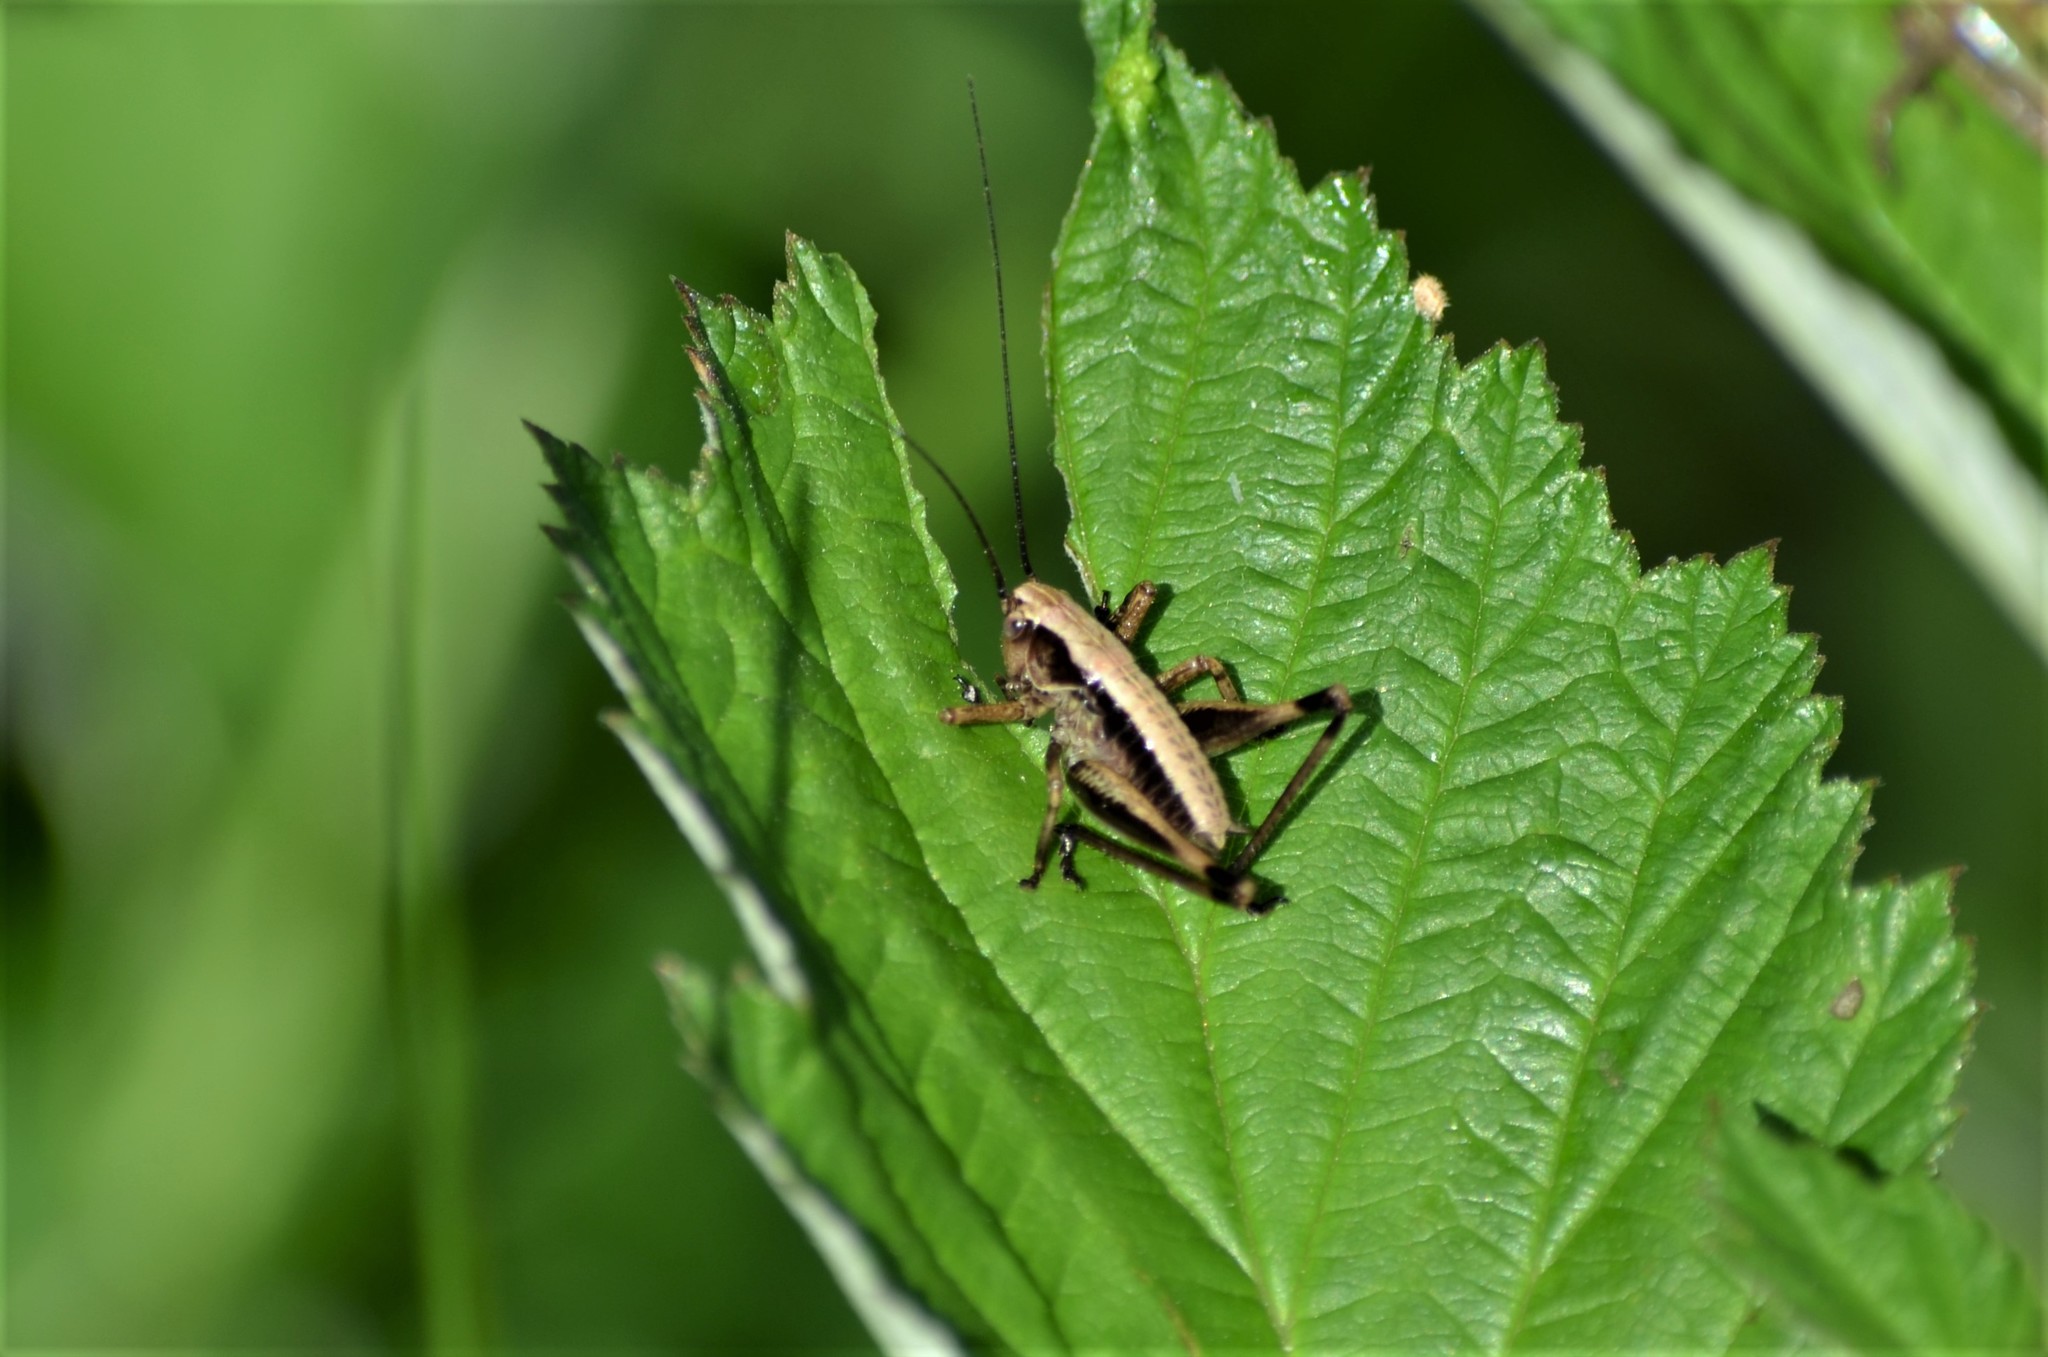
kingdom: Animalia
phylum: Arthropoda
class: Insecta
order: Orthoptera
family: Tettigoniidae
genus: Pholidoptera
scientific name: Pholidoptera griseoaptera
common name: Dark bush-cricket
